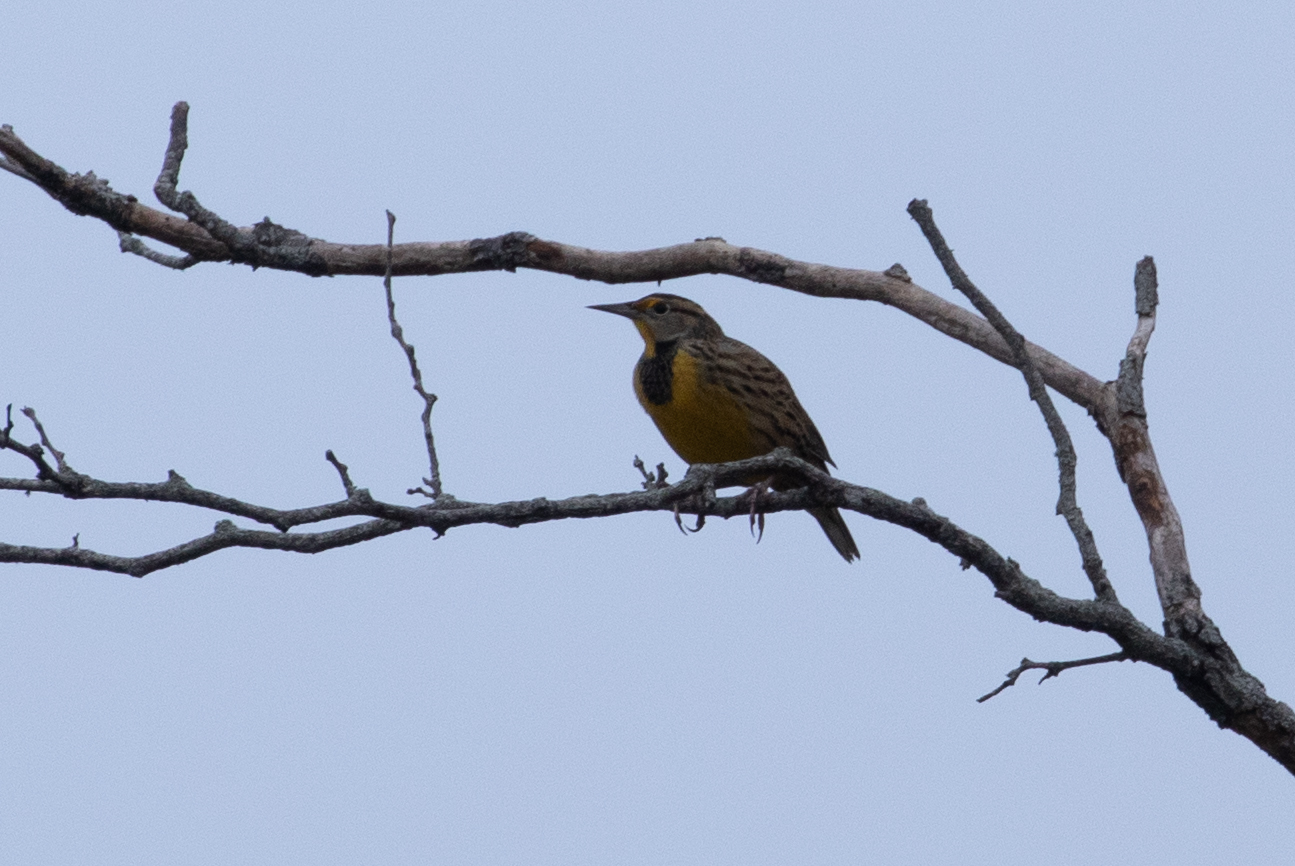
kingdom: Animalia
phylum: Chordata
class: Aves
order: Passeriformes
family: Icteridae
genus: Sturnella
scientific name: Sturnella magna
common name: Eastern meadowlark
